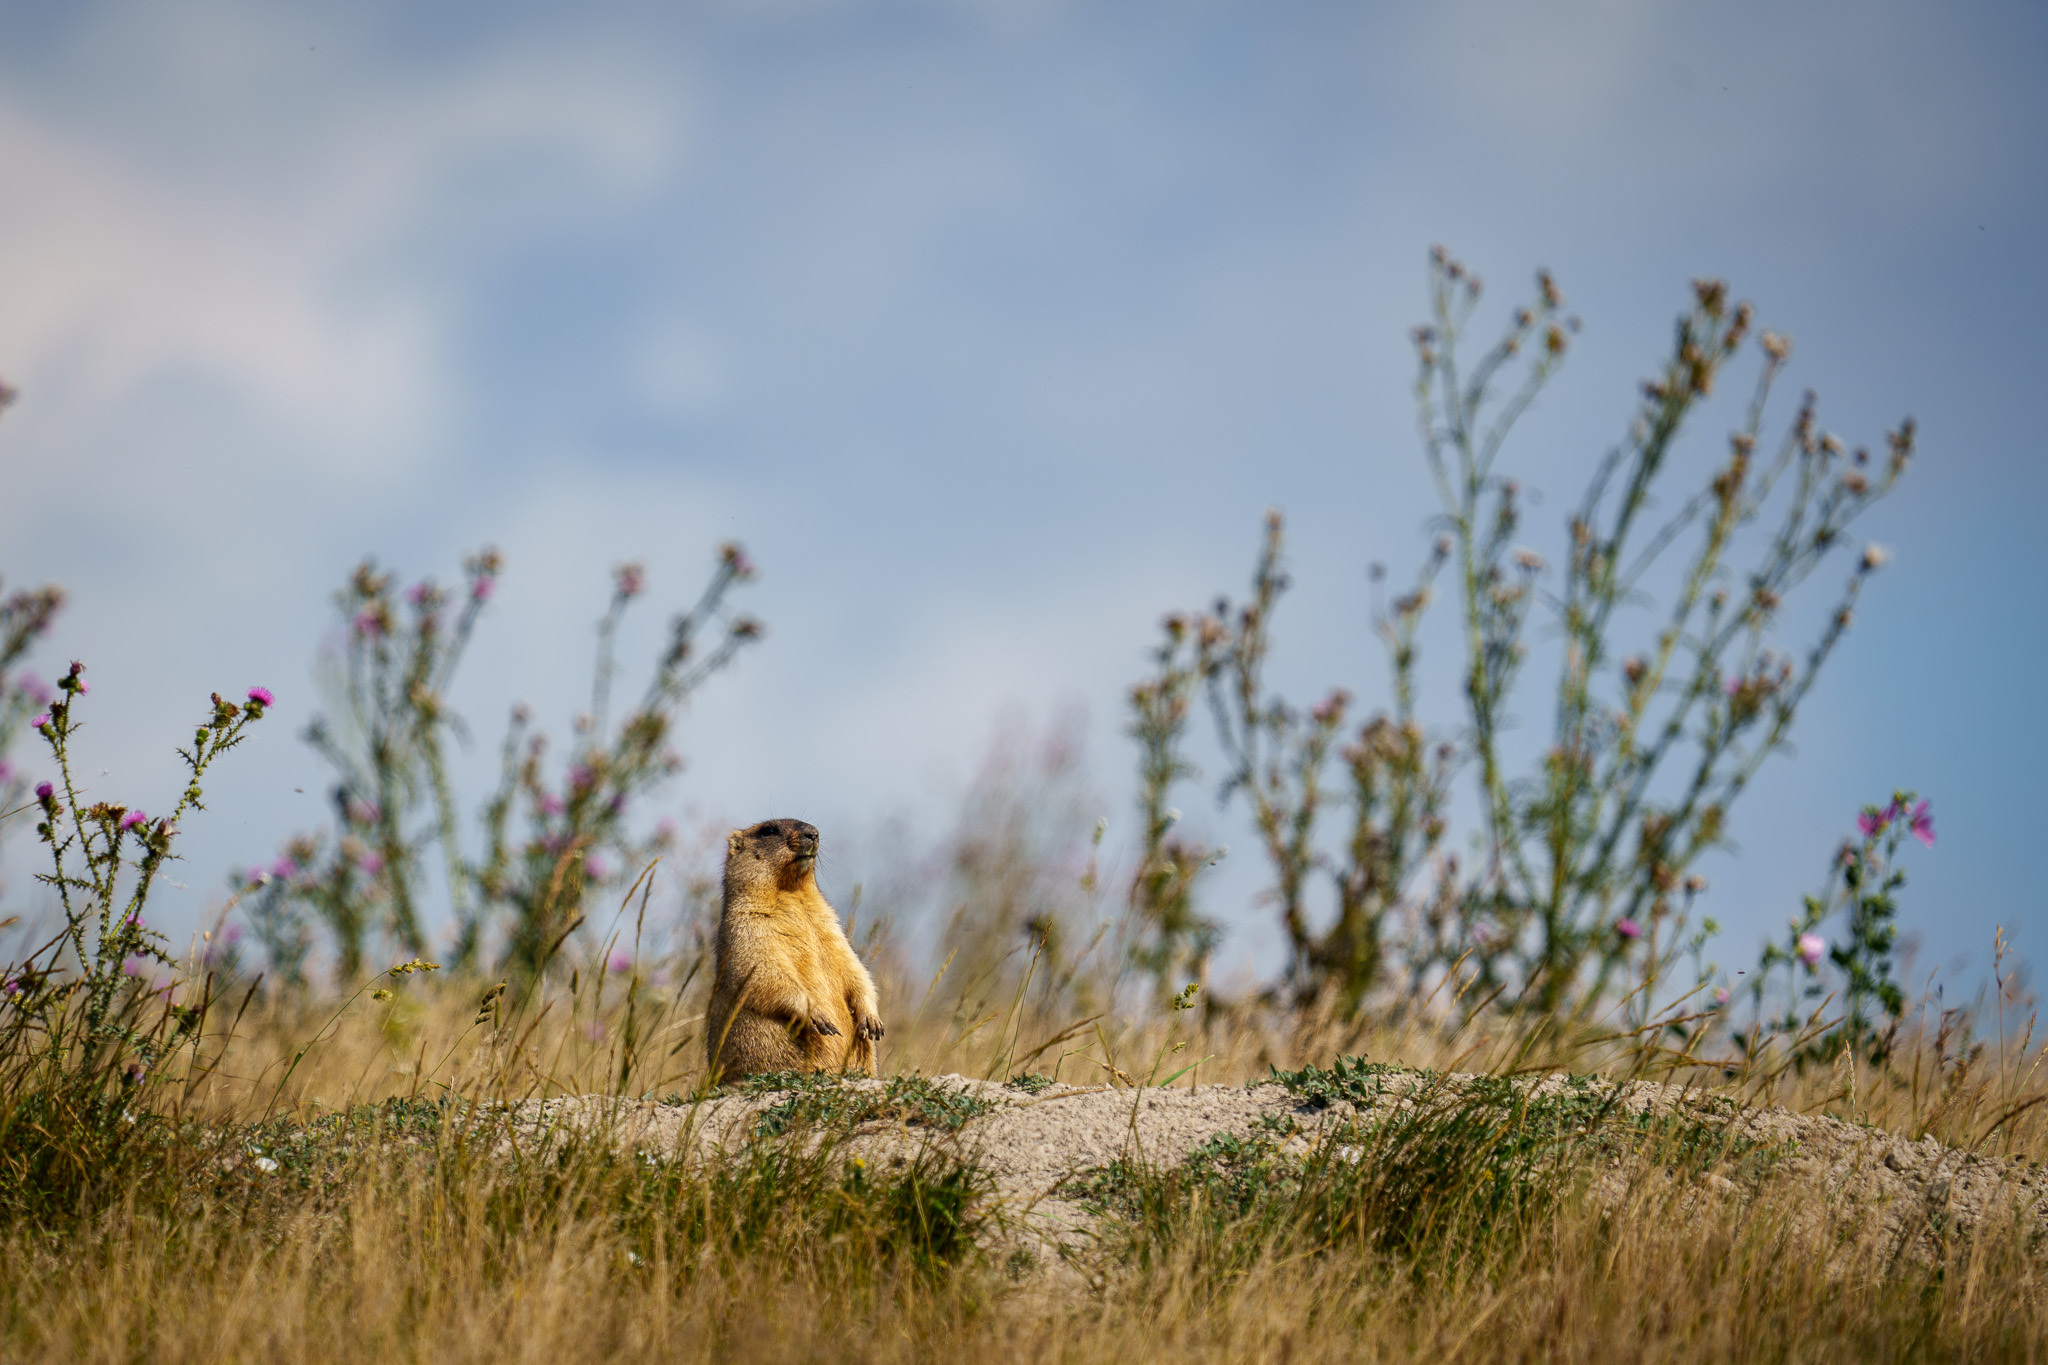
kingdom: Animalia
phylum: Chordata
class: Mammalia
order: Rodentia
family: Sciuridae
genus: Marmota
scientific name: Marmota bobak
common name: Bobak marmot
